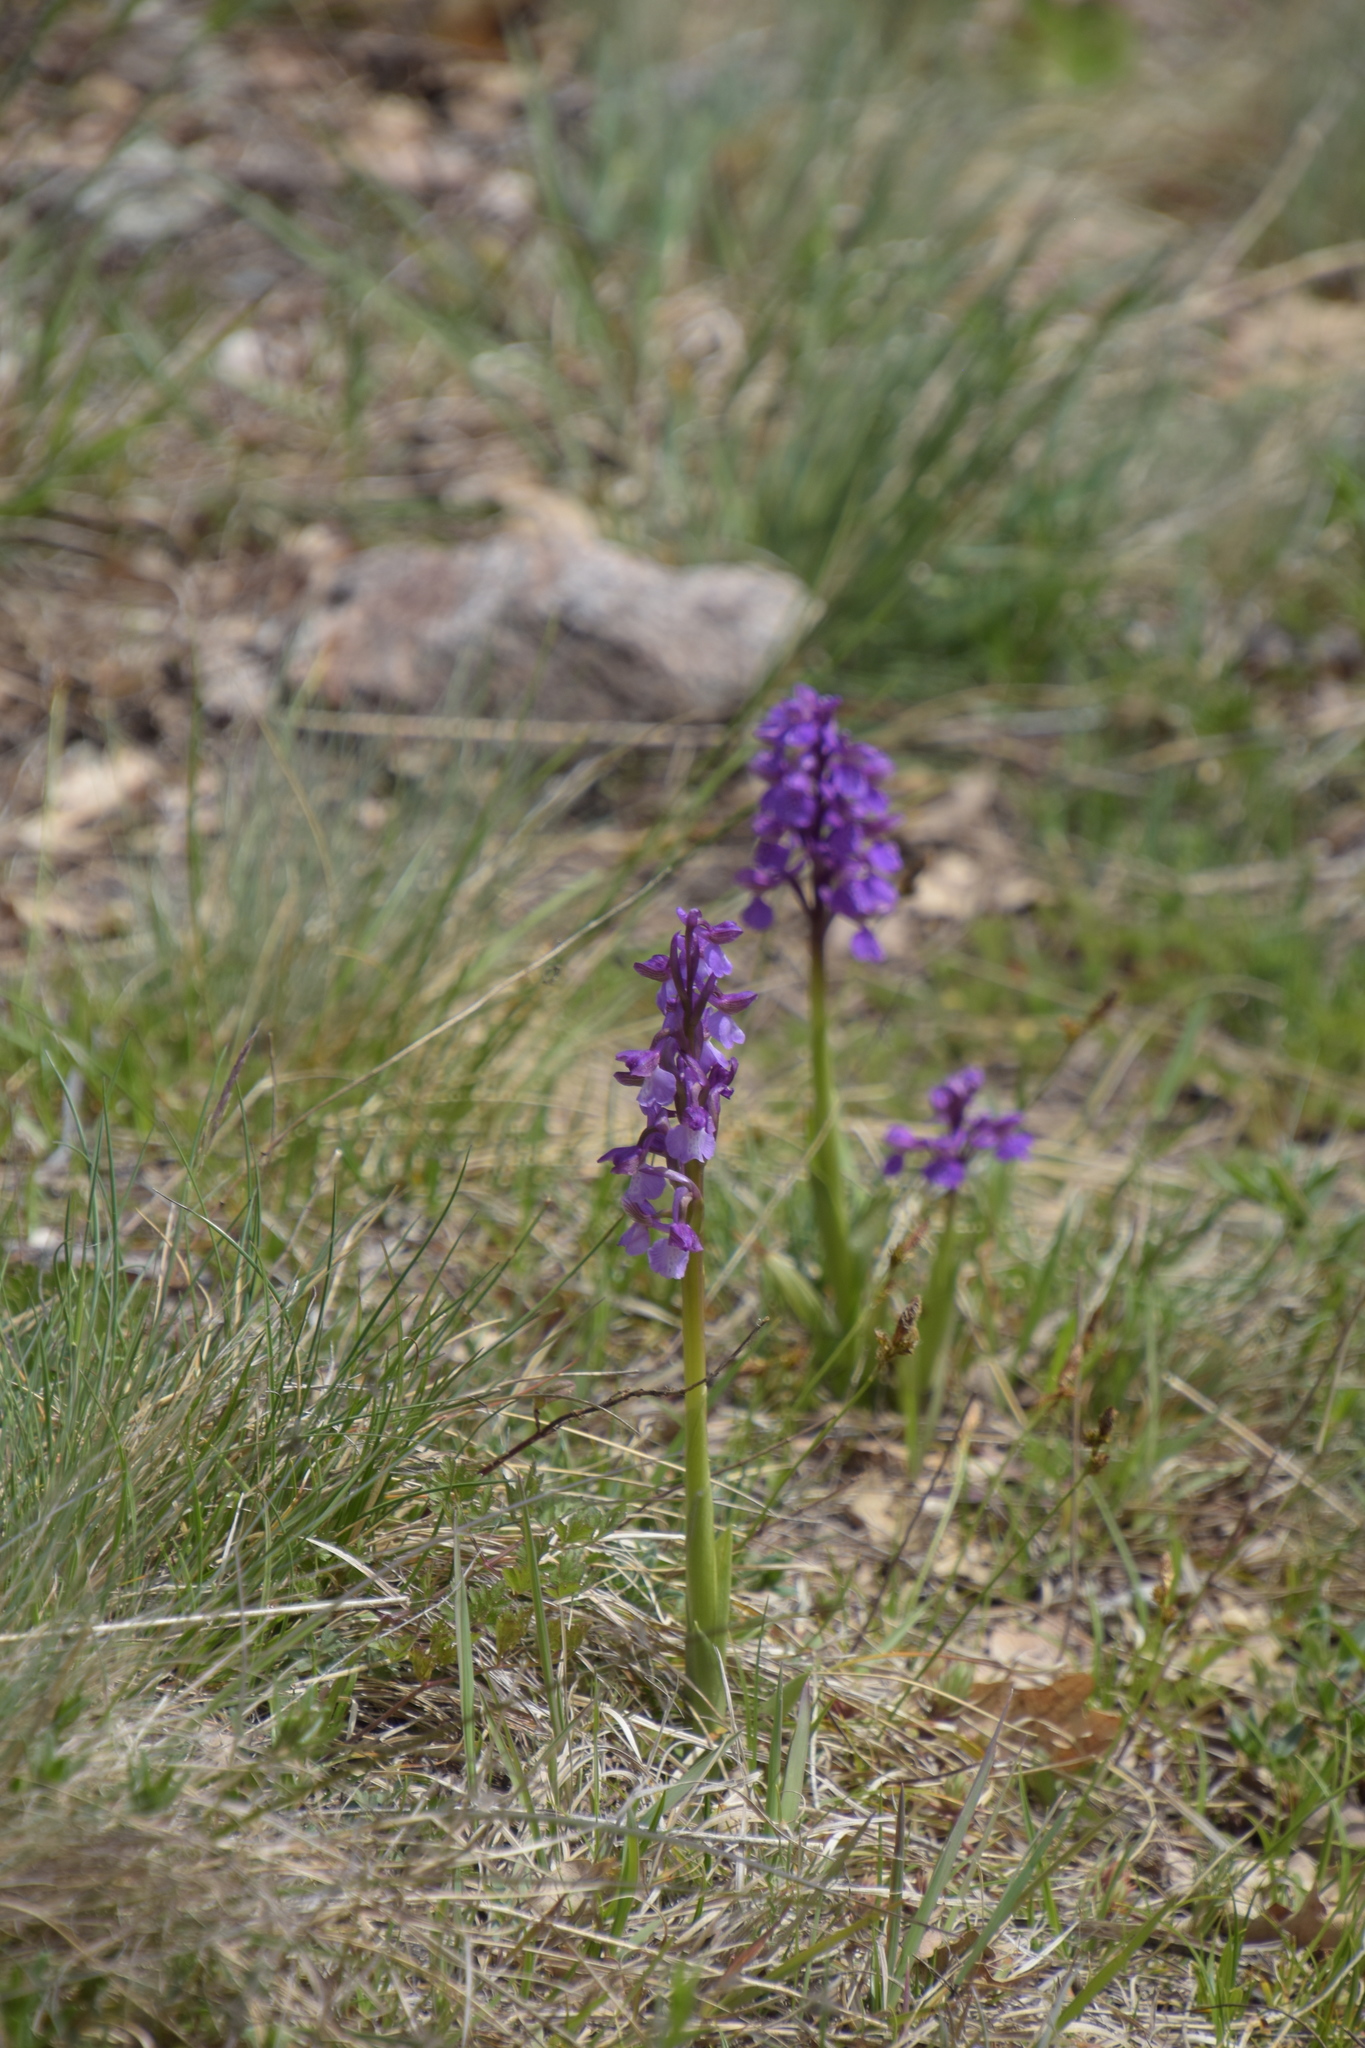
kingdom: Plantae
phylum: Tracheophyta
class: Liliopsida
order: Asparagales
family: Orchidaceae
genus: Anacamptis
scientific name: Anacamptis morio
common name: Green-winged orchid
